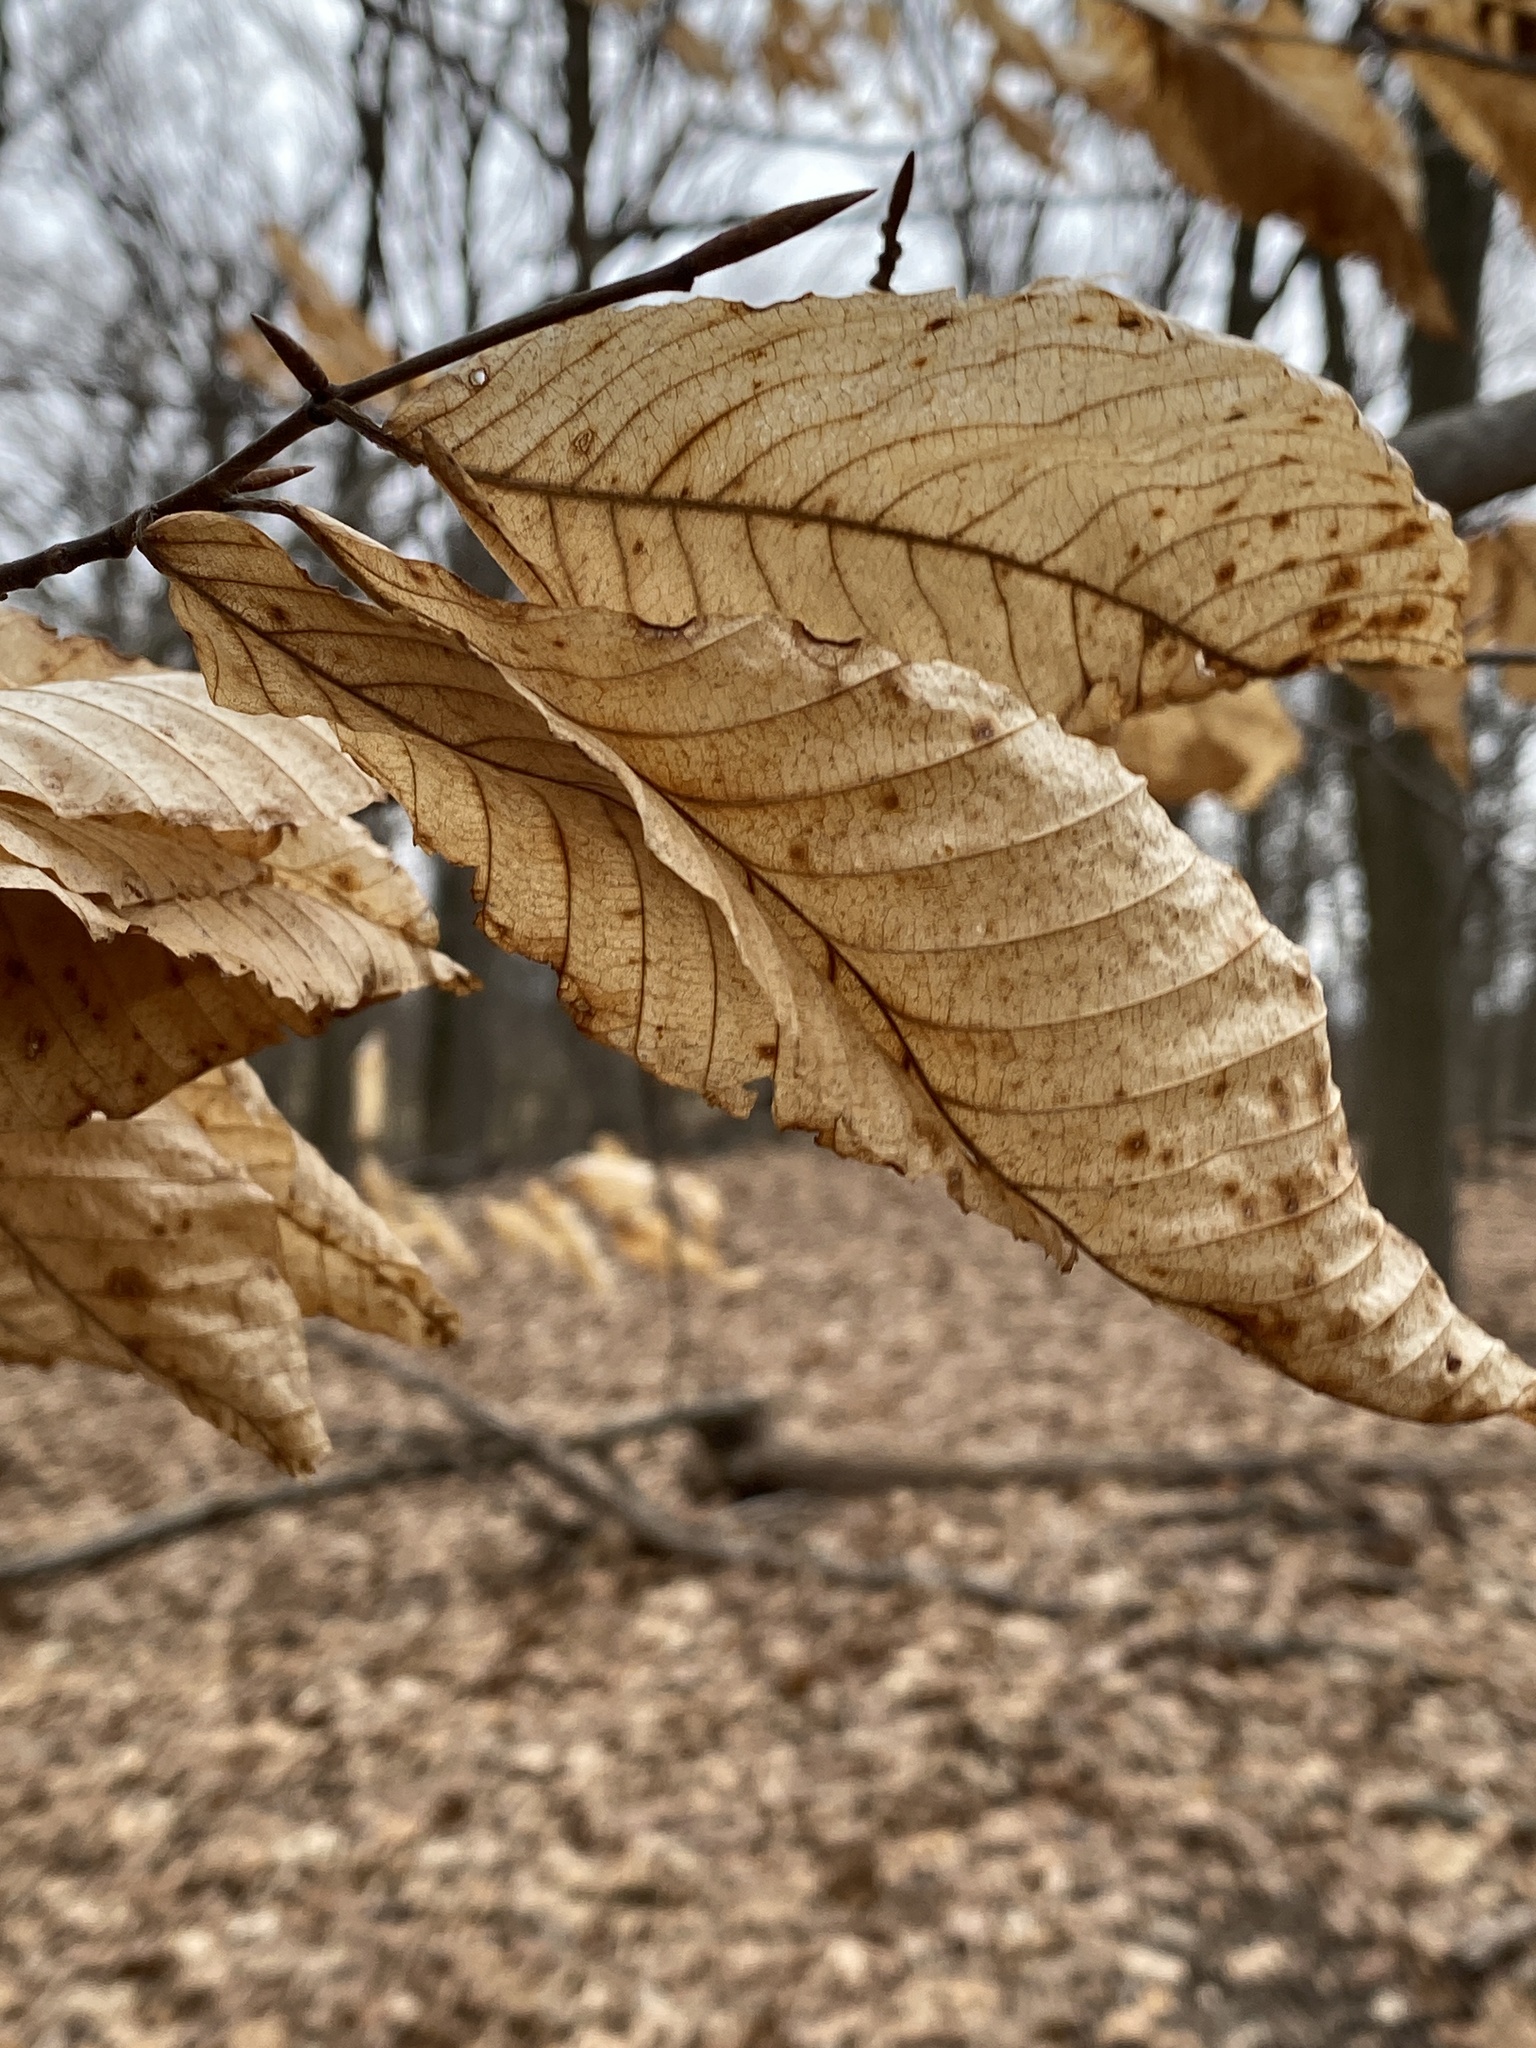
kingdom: Plantae
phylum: Tracheophyta
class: Magnoliopsida
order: Fagales
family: Fagaceae
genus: Fagus
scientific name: Fagus grandifolia
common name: American beech
